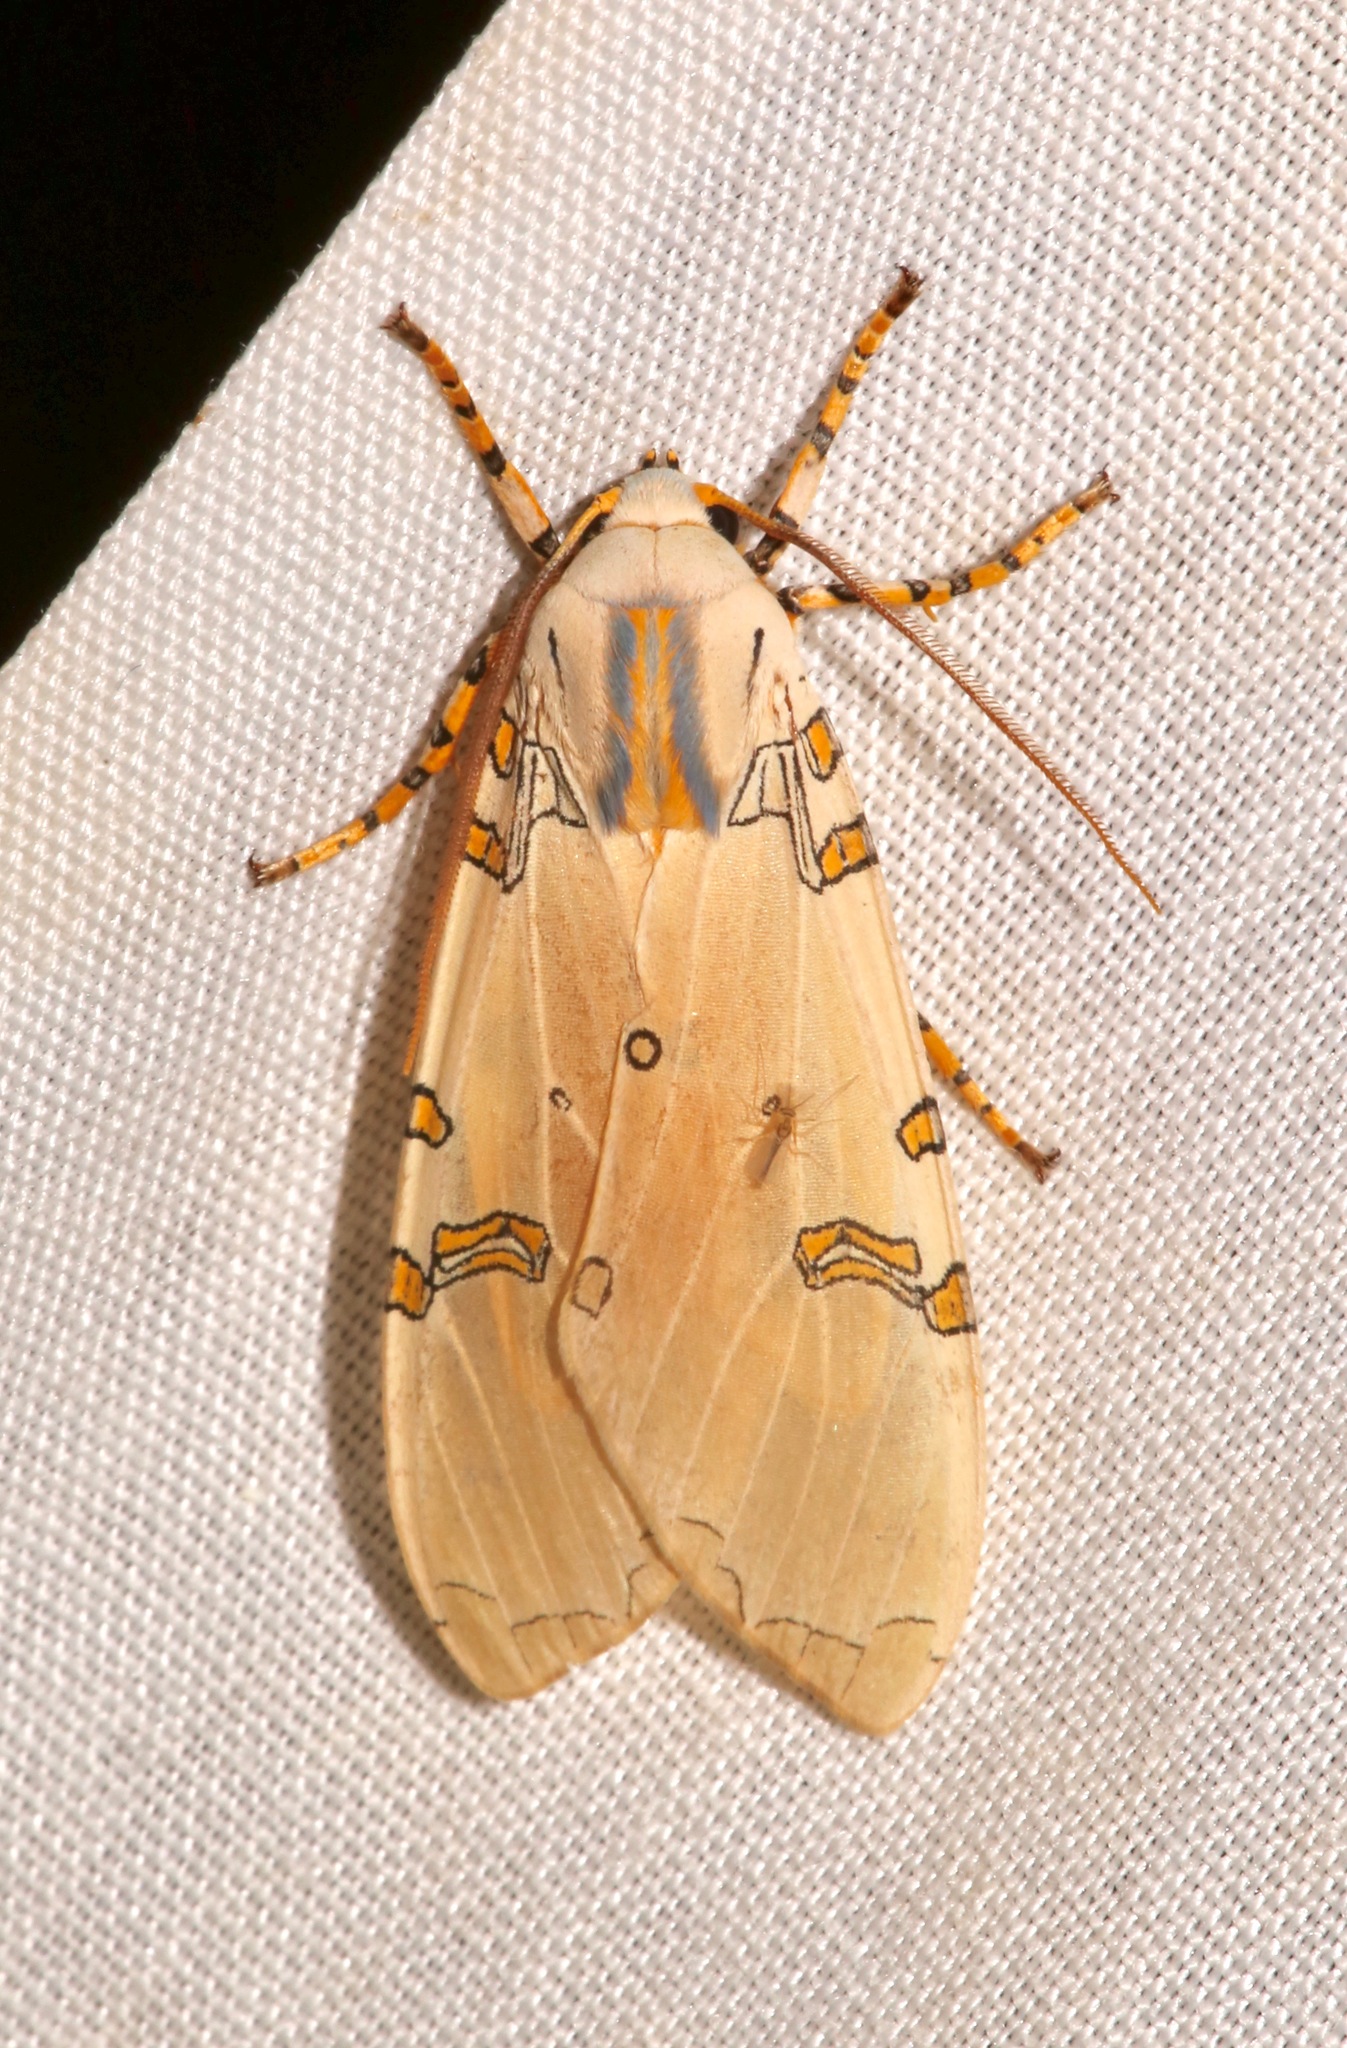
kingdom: Animalia
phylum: Arthropoda
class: Insecta
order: Lepidoptera
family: Erebidae
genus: Halysidota
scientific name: Halysidota davisii
